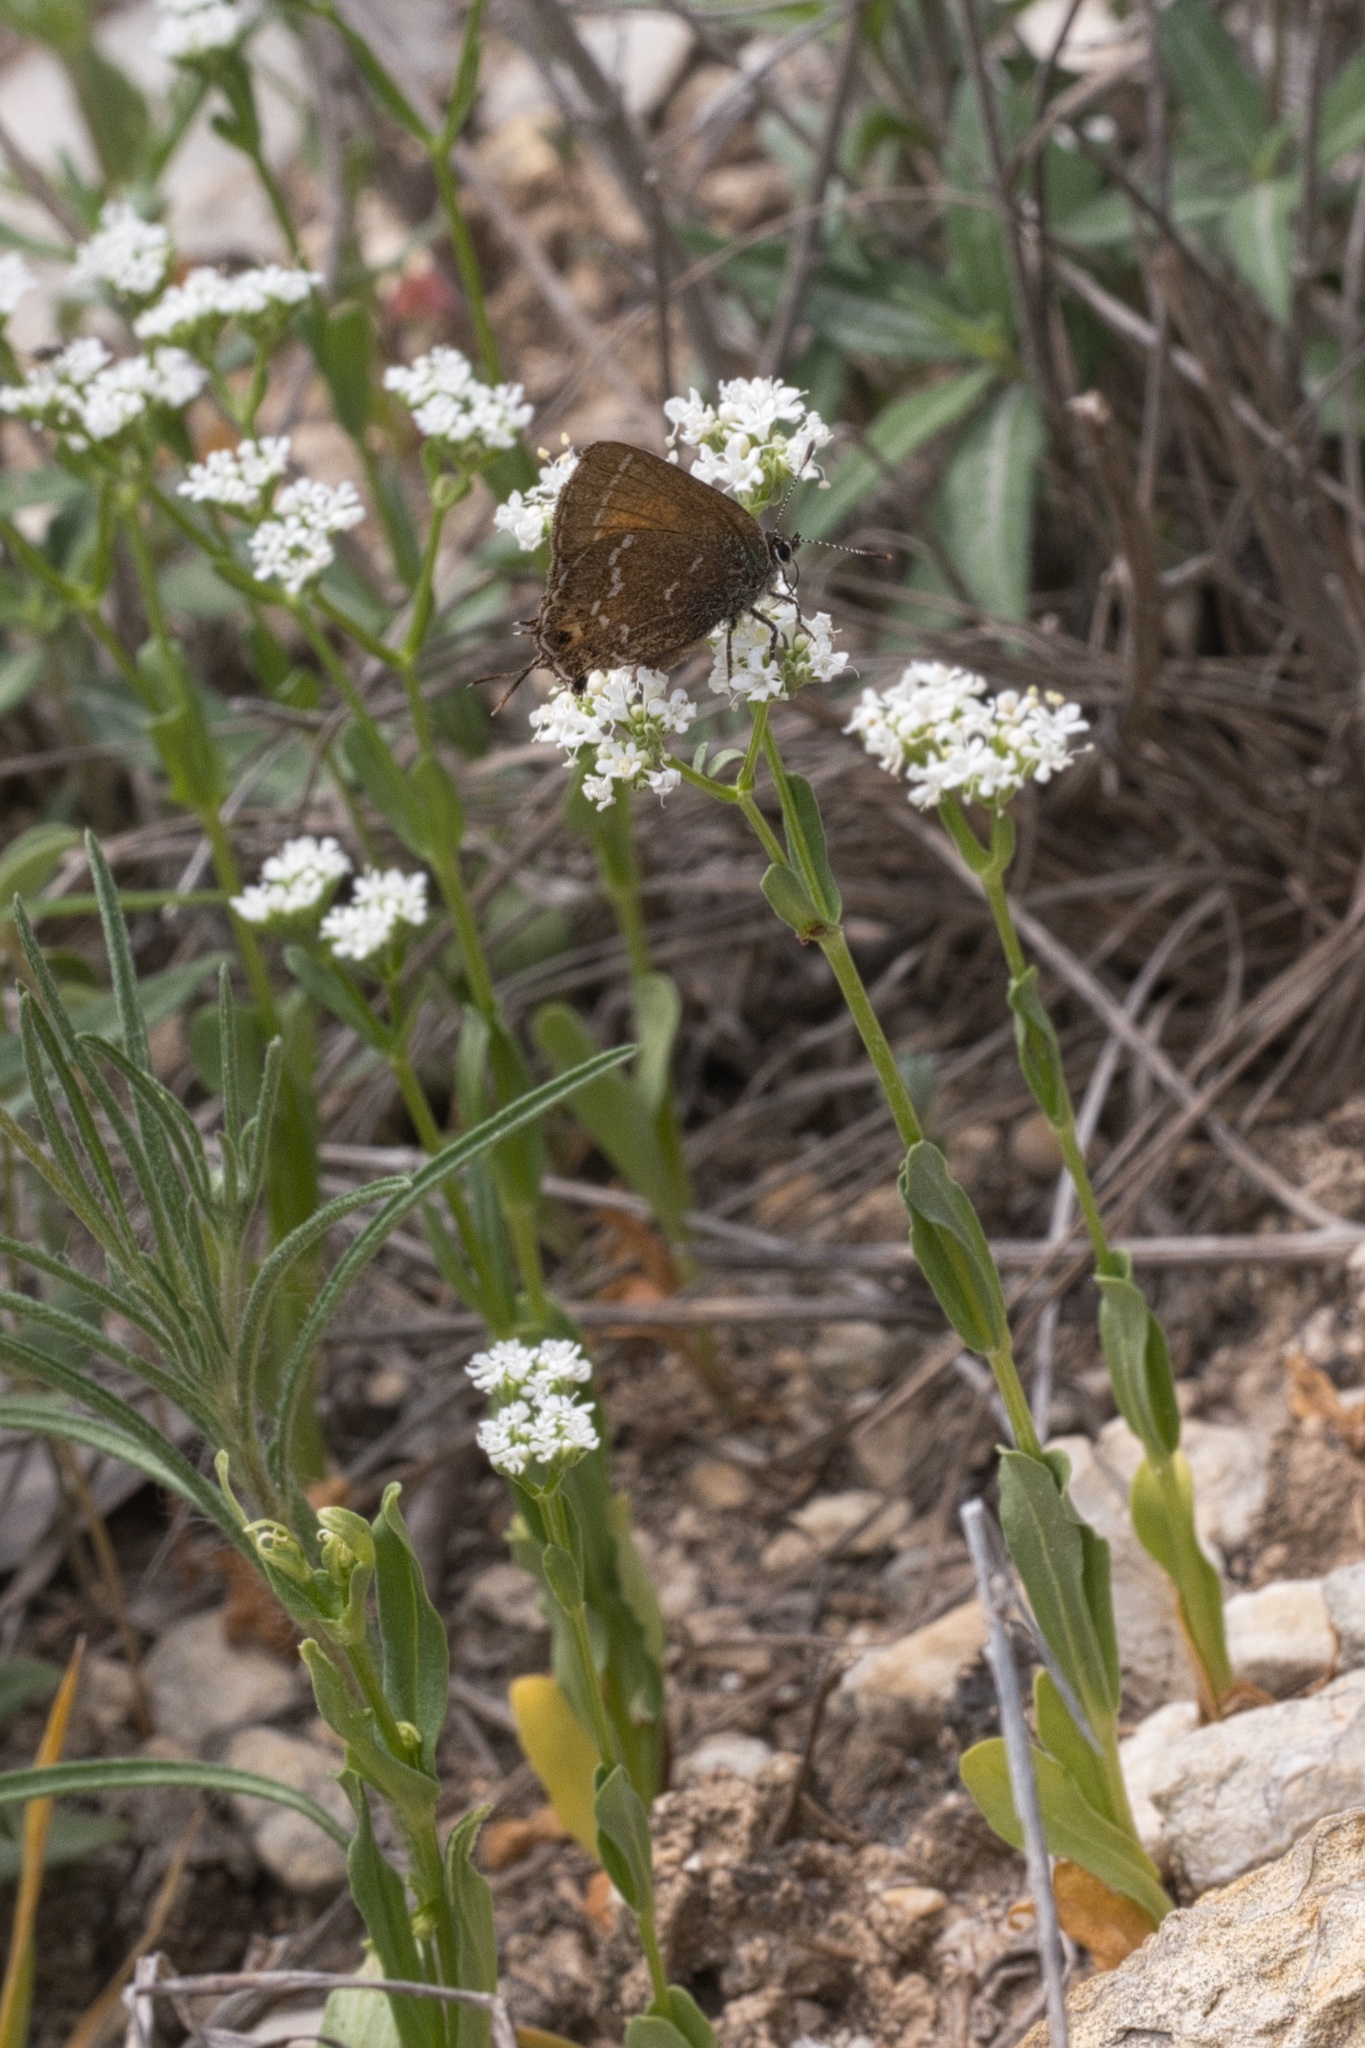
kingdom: Animalia
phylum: Arthropoda
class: Insecta
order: Lepidoptera
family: Lycaenidae
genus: Mitoura
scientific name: Mitoura gryneus
